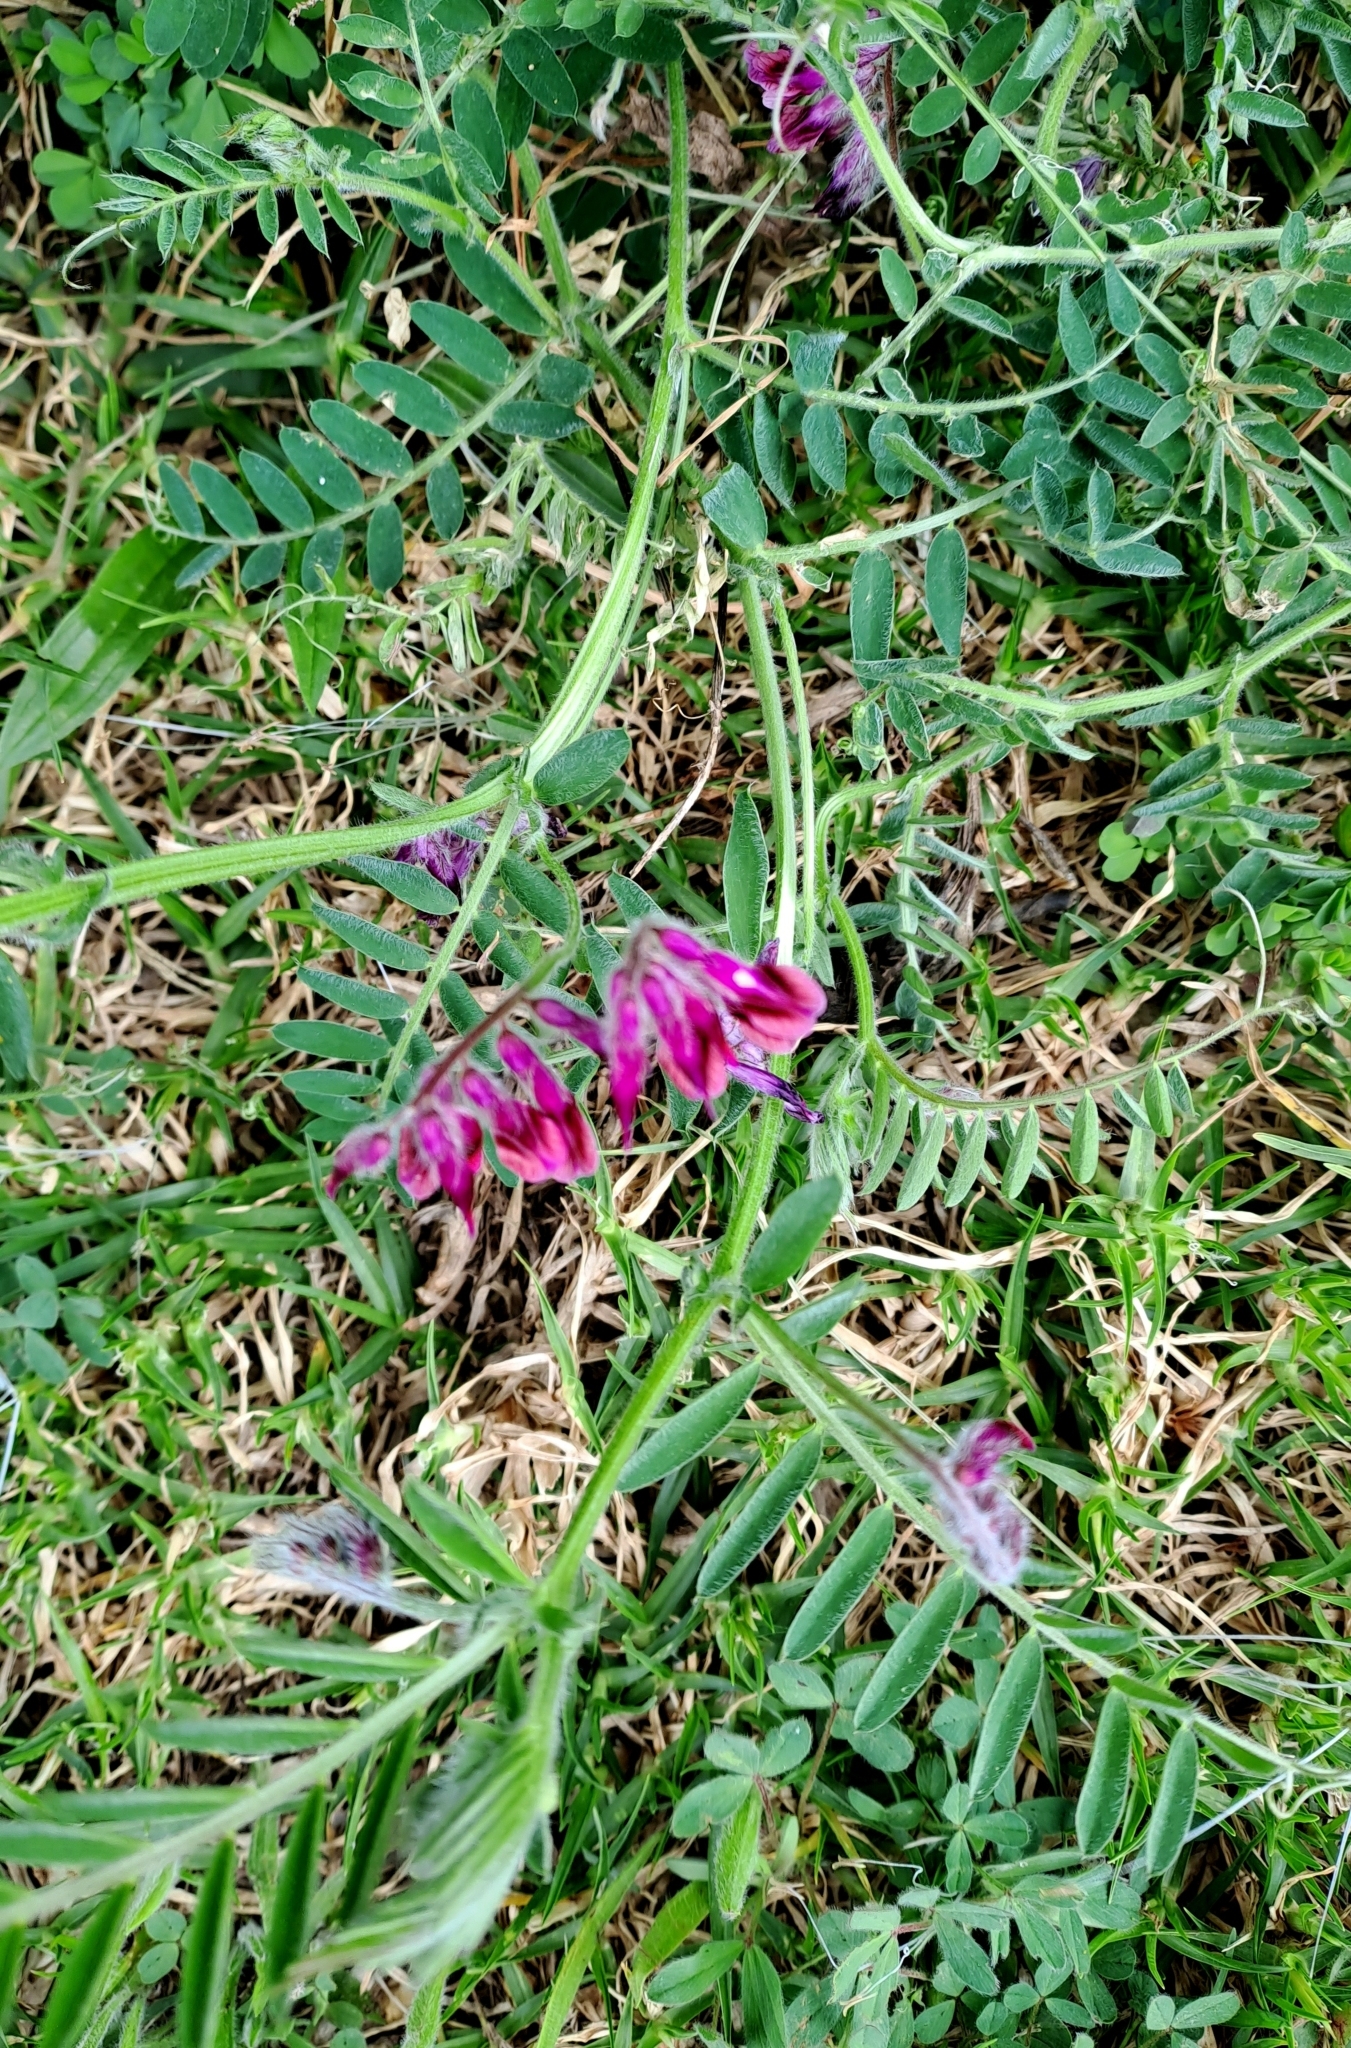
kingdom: Plantae
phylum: Tracheophyta
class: Magnoliopsida
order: Fabales
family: Fabaceae
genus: Vicia
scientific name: Vicia benghalensis
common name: Purple vetch
